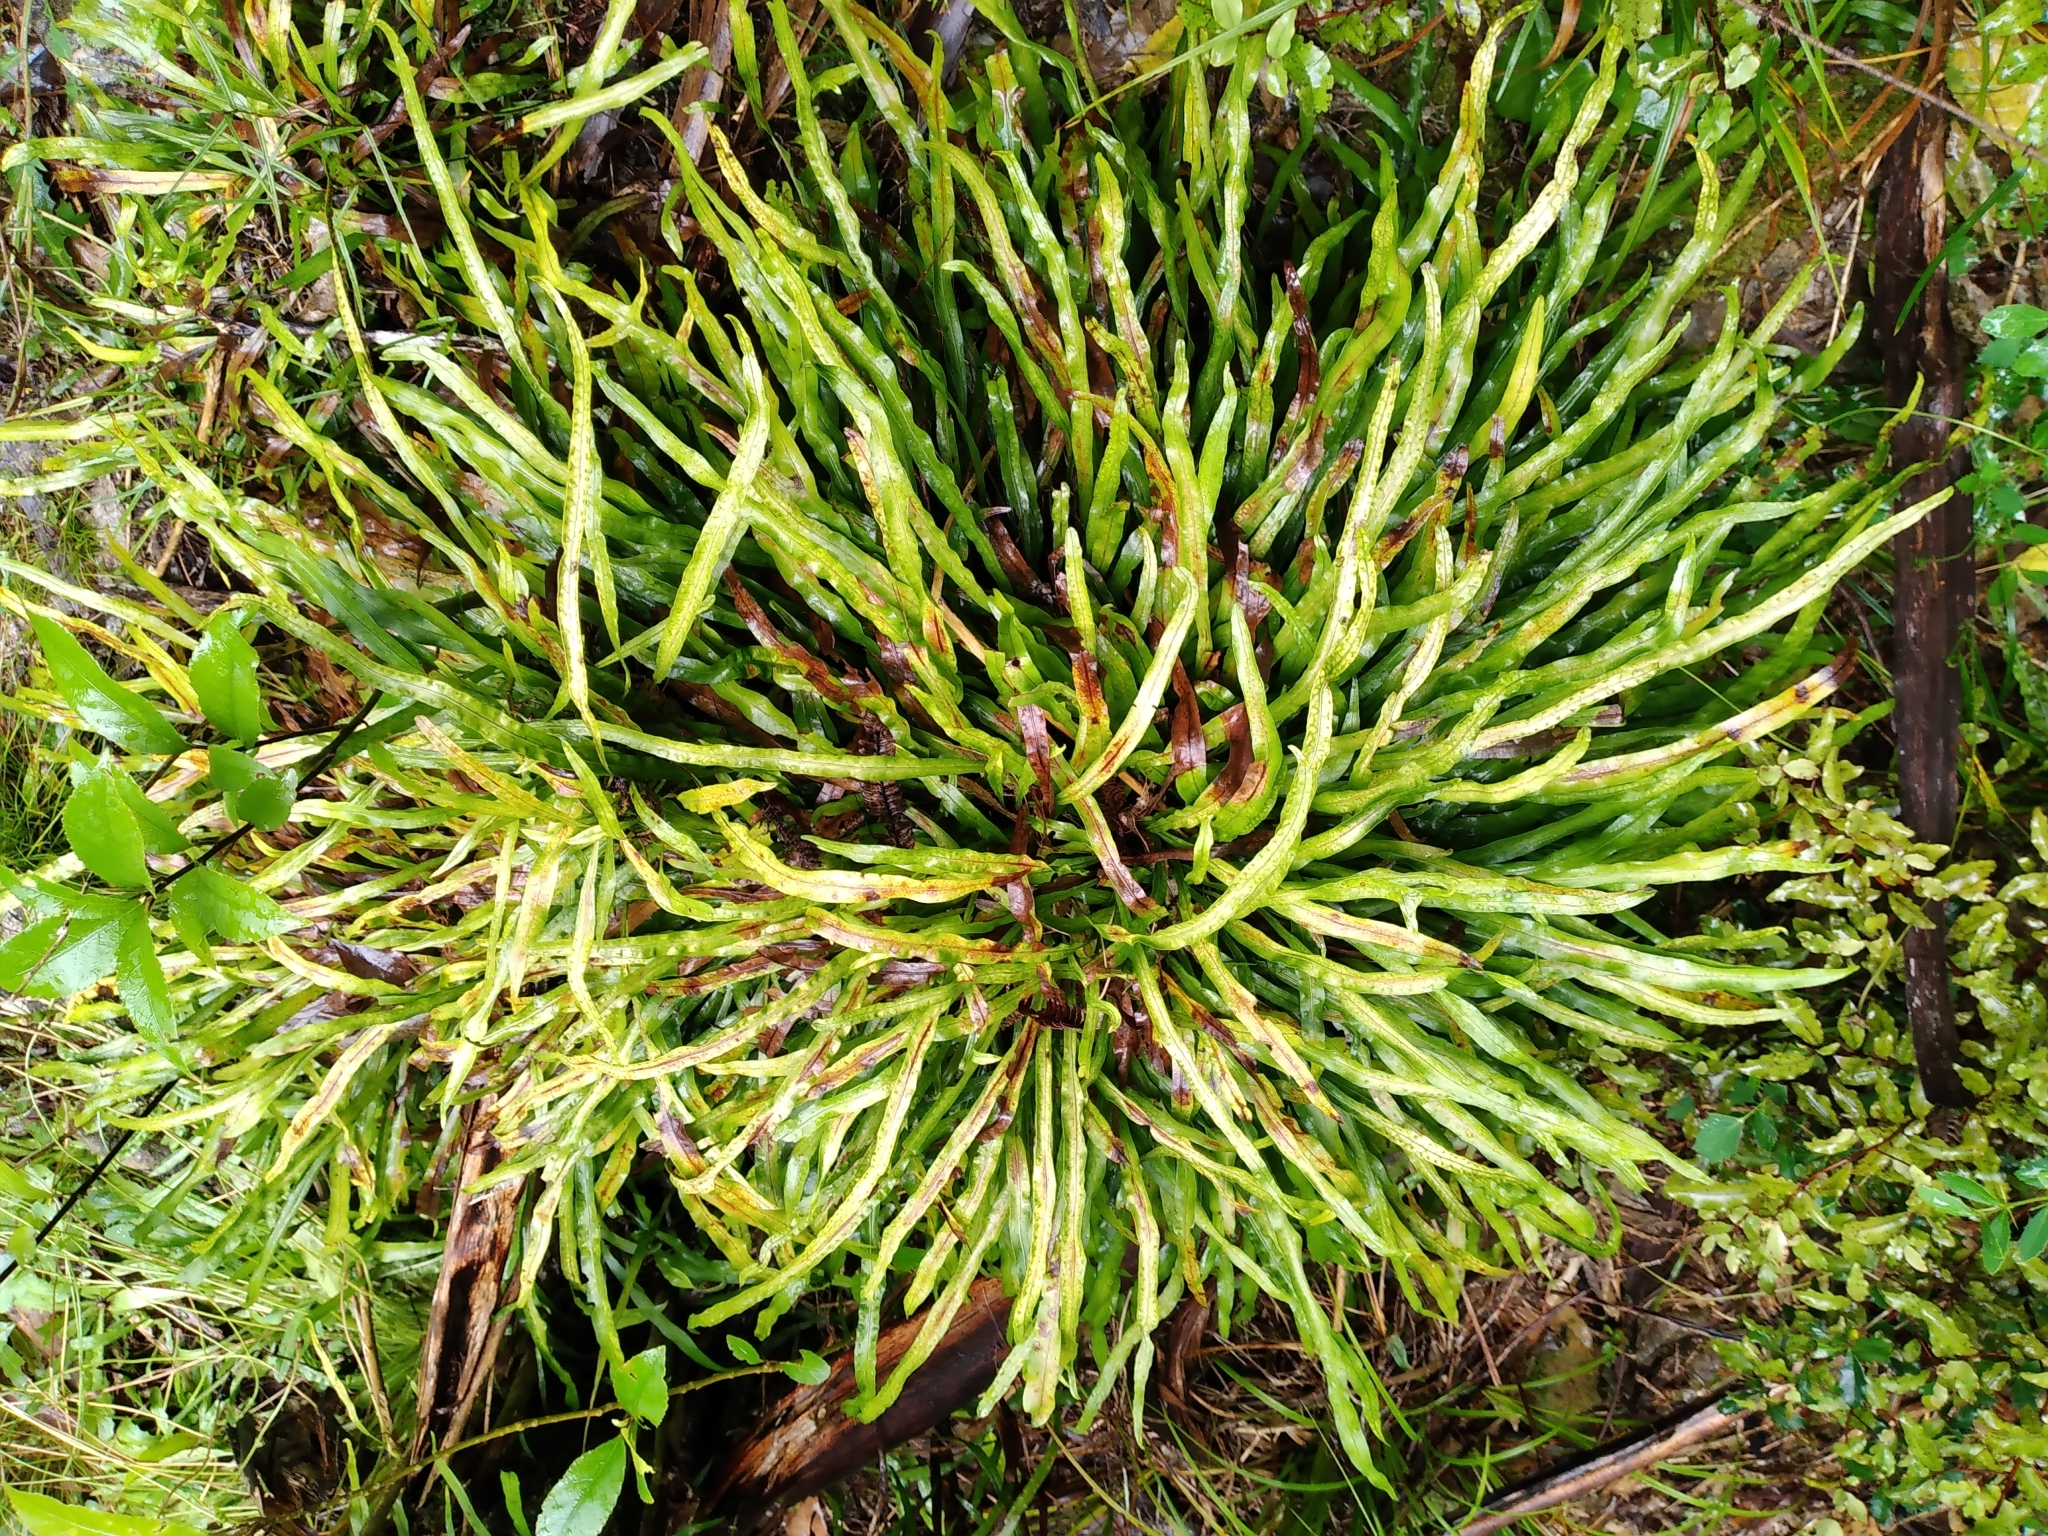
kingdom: Plantae
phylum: Tracheophyta
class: Polypodiopsida
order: Polypodiales
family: Polypodiaceae
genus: Lecanopteris
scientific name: Lecanopteris scandens
